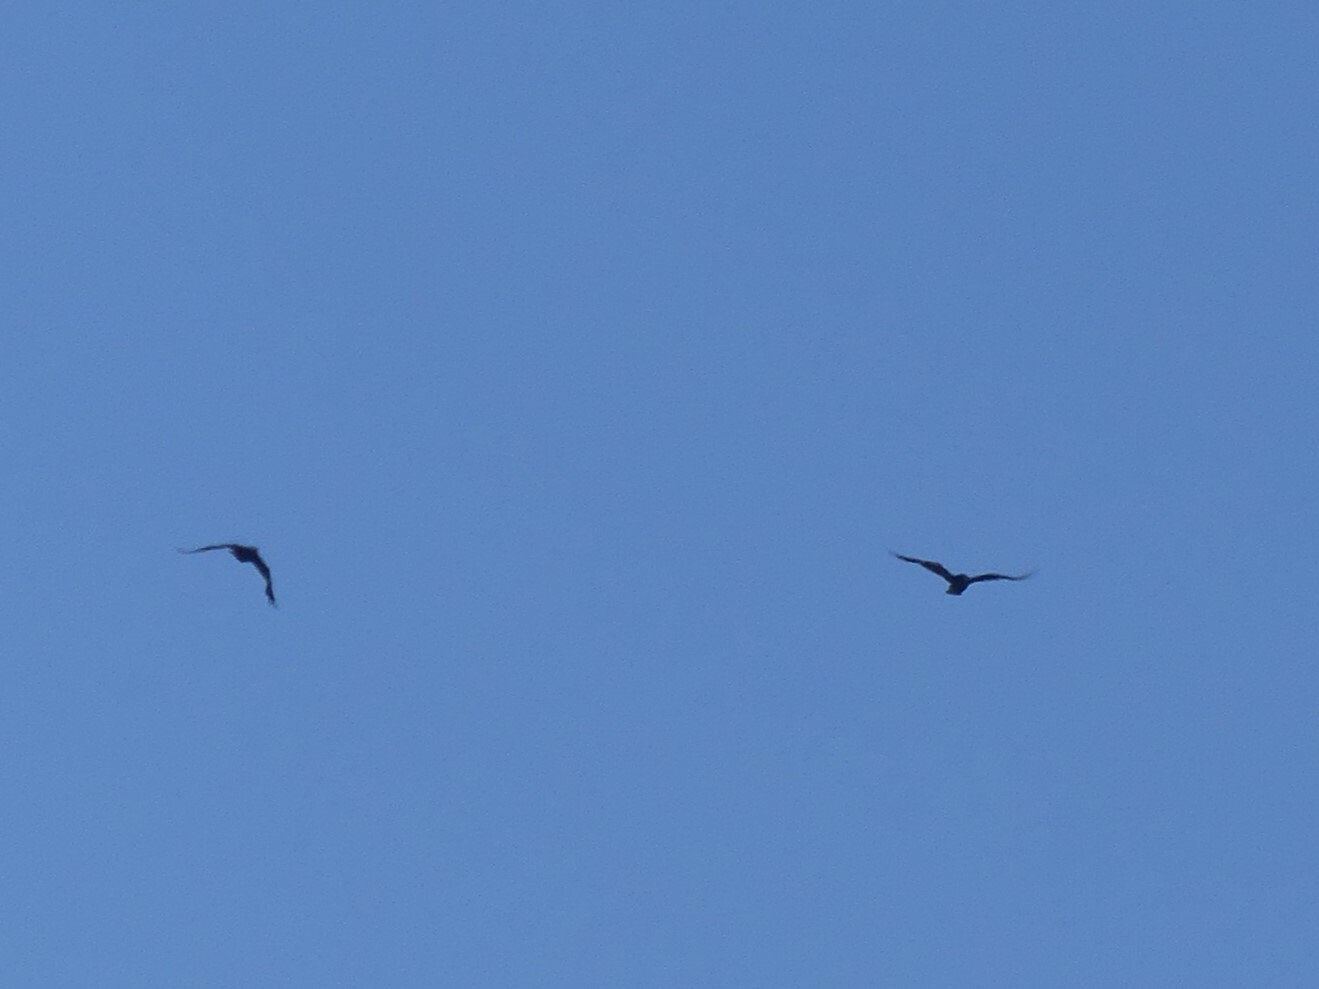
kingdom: Animalia
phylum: Chordata
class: Aves
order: Passeriformes
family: Corvidae
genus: Corvus
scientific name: Corvus corax
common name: Common raven
